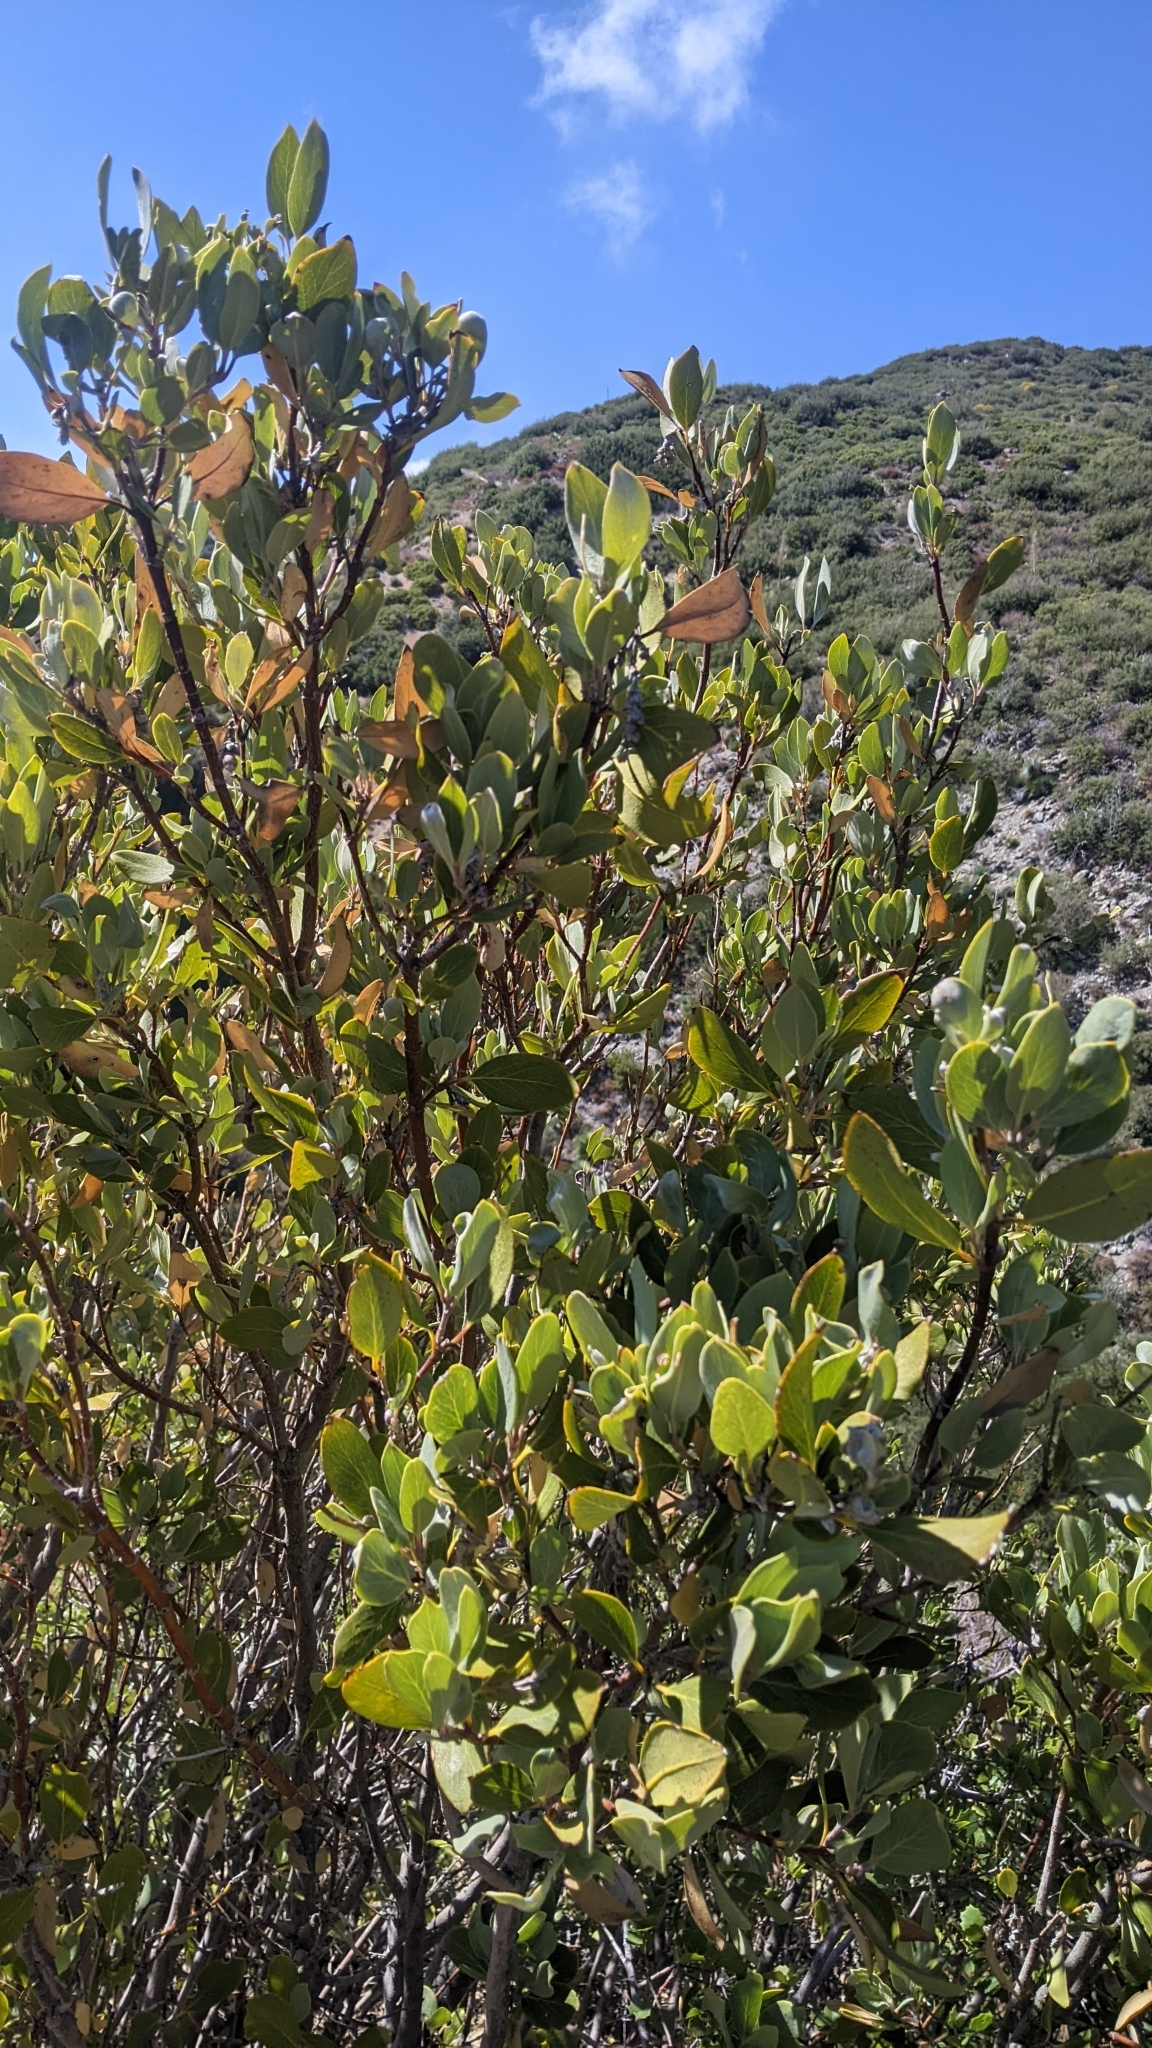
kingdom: Plantae
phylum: Tracheophyta
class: Magnoliopsida
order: Garryales
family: Garryaceae
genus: Garrya
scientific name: Garrya flavescens
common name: Ashy silk-tassel
